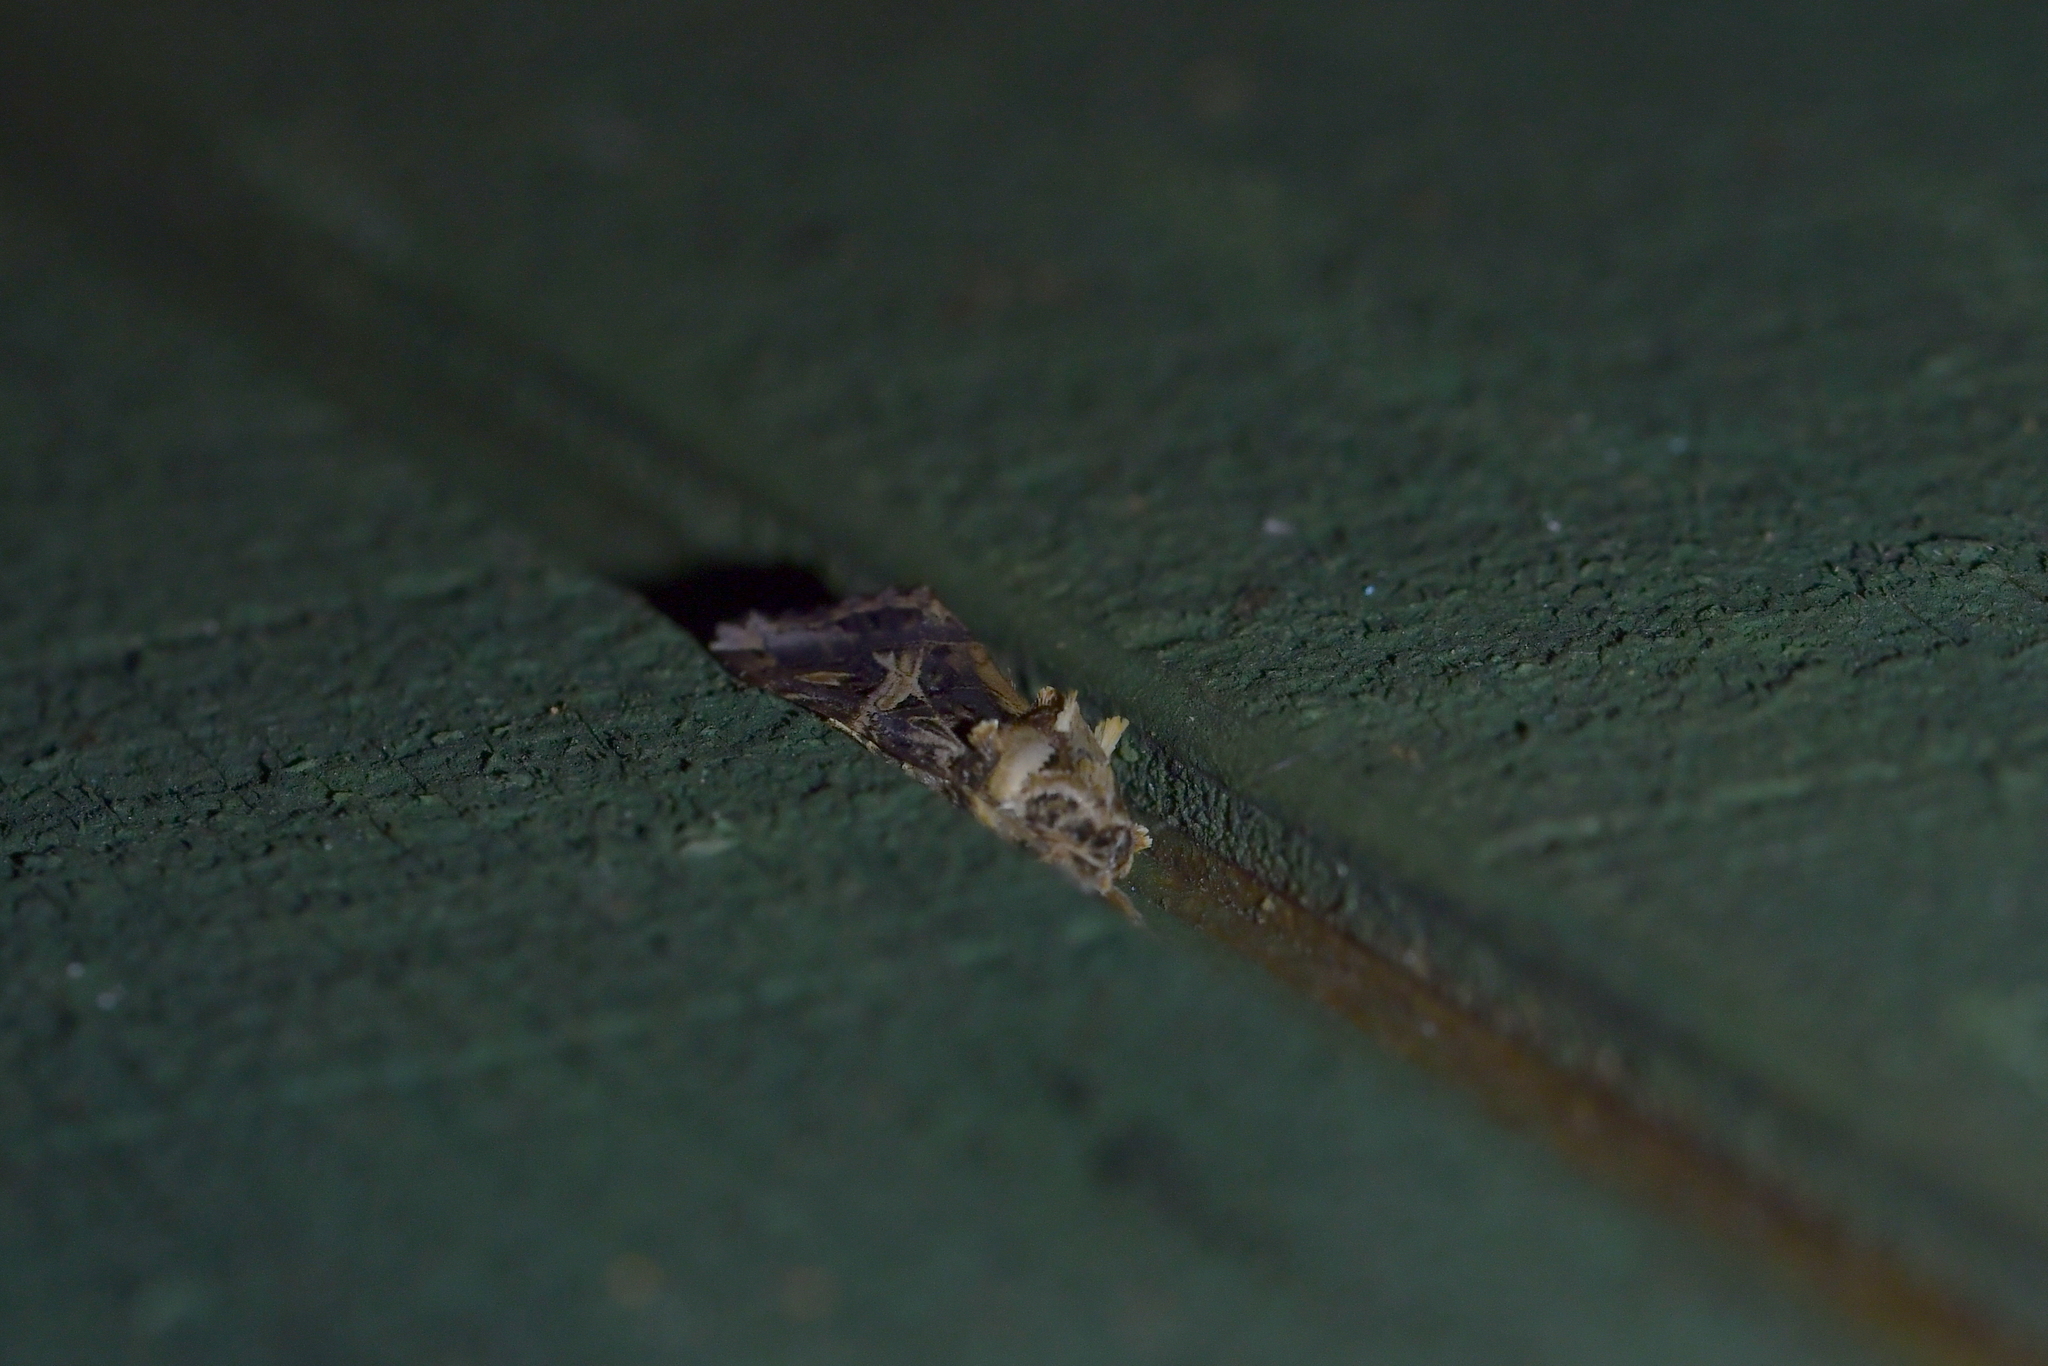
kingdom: Animalia
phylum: Arthropoda
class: Insecta
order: Lepidoptera
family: Noctuidae
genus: Spodoptera
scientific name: Spodoptera litura
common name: Asian cotton leafworm
